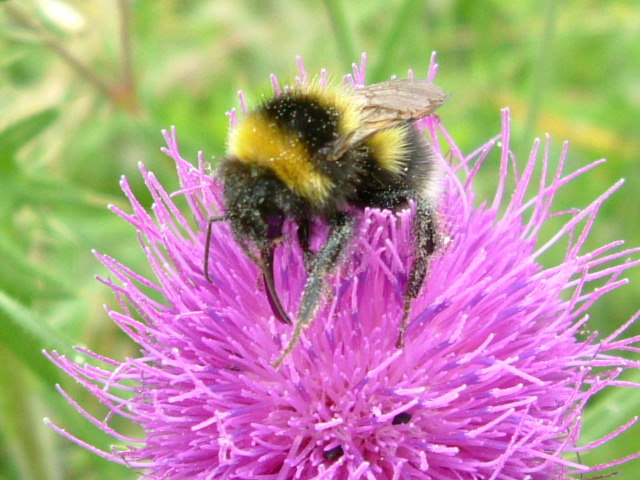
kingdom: Animalia
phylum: Arthropoda
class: Insecta
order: Hymenoptera
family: Apidae
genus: Bombus
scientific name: Bombus hortorum
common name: Garden bumblebee
